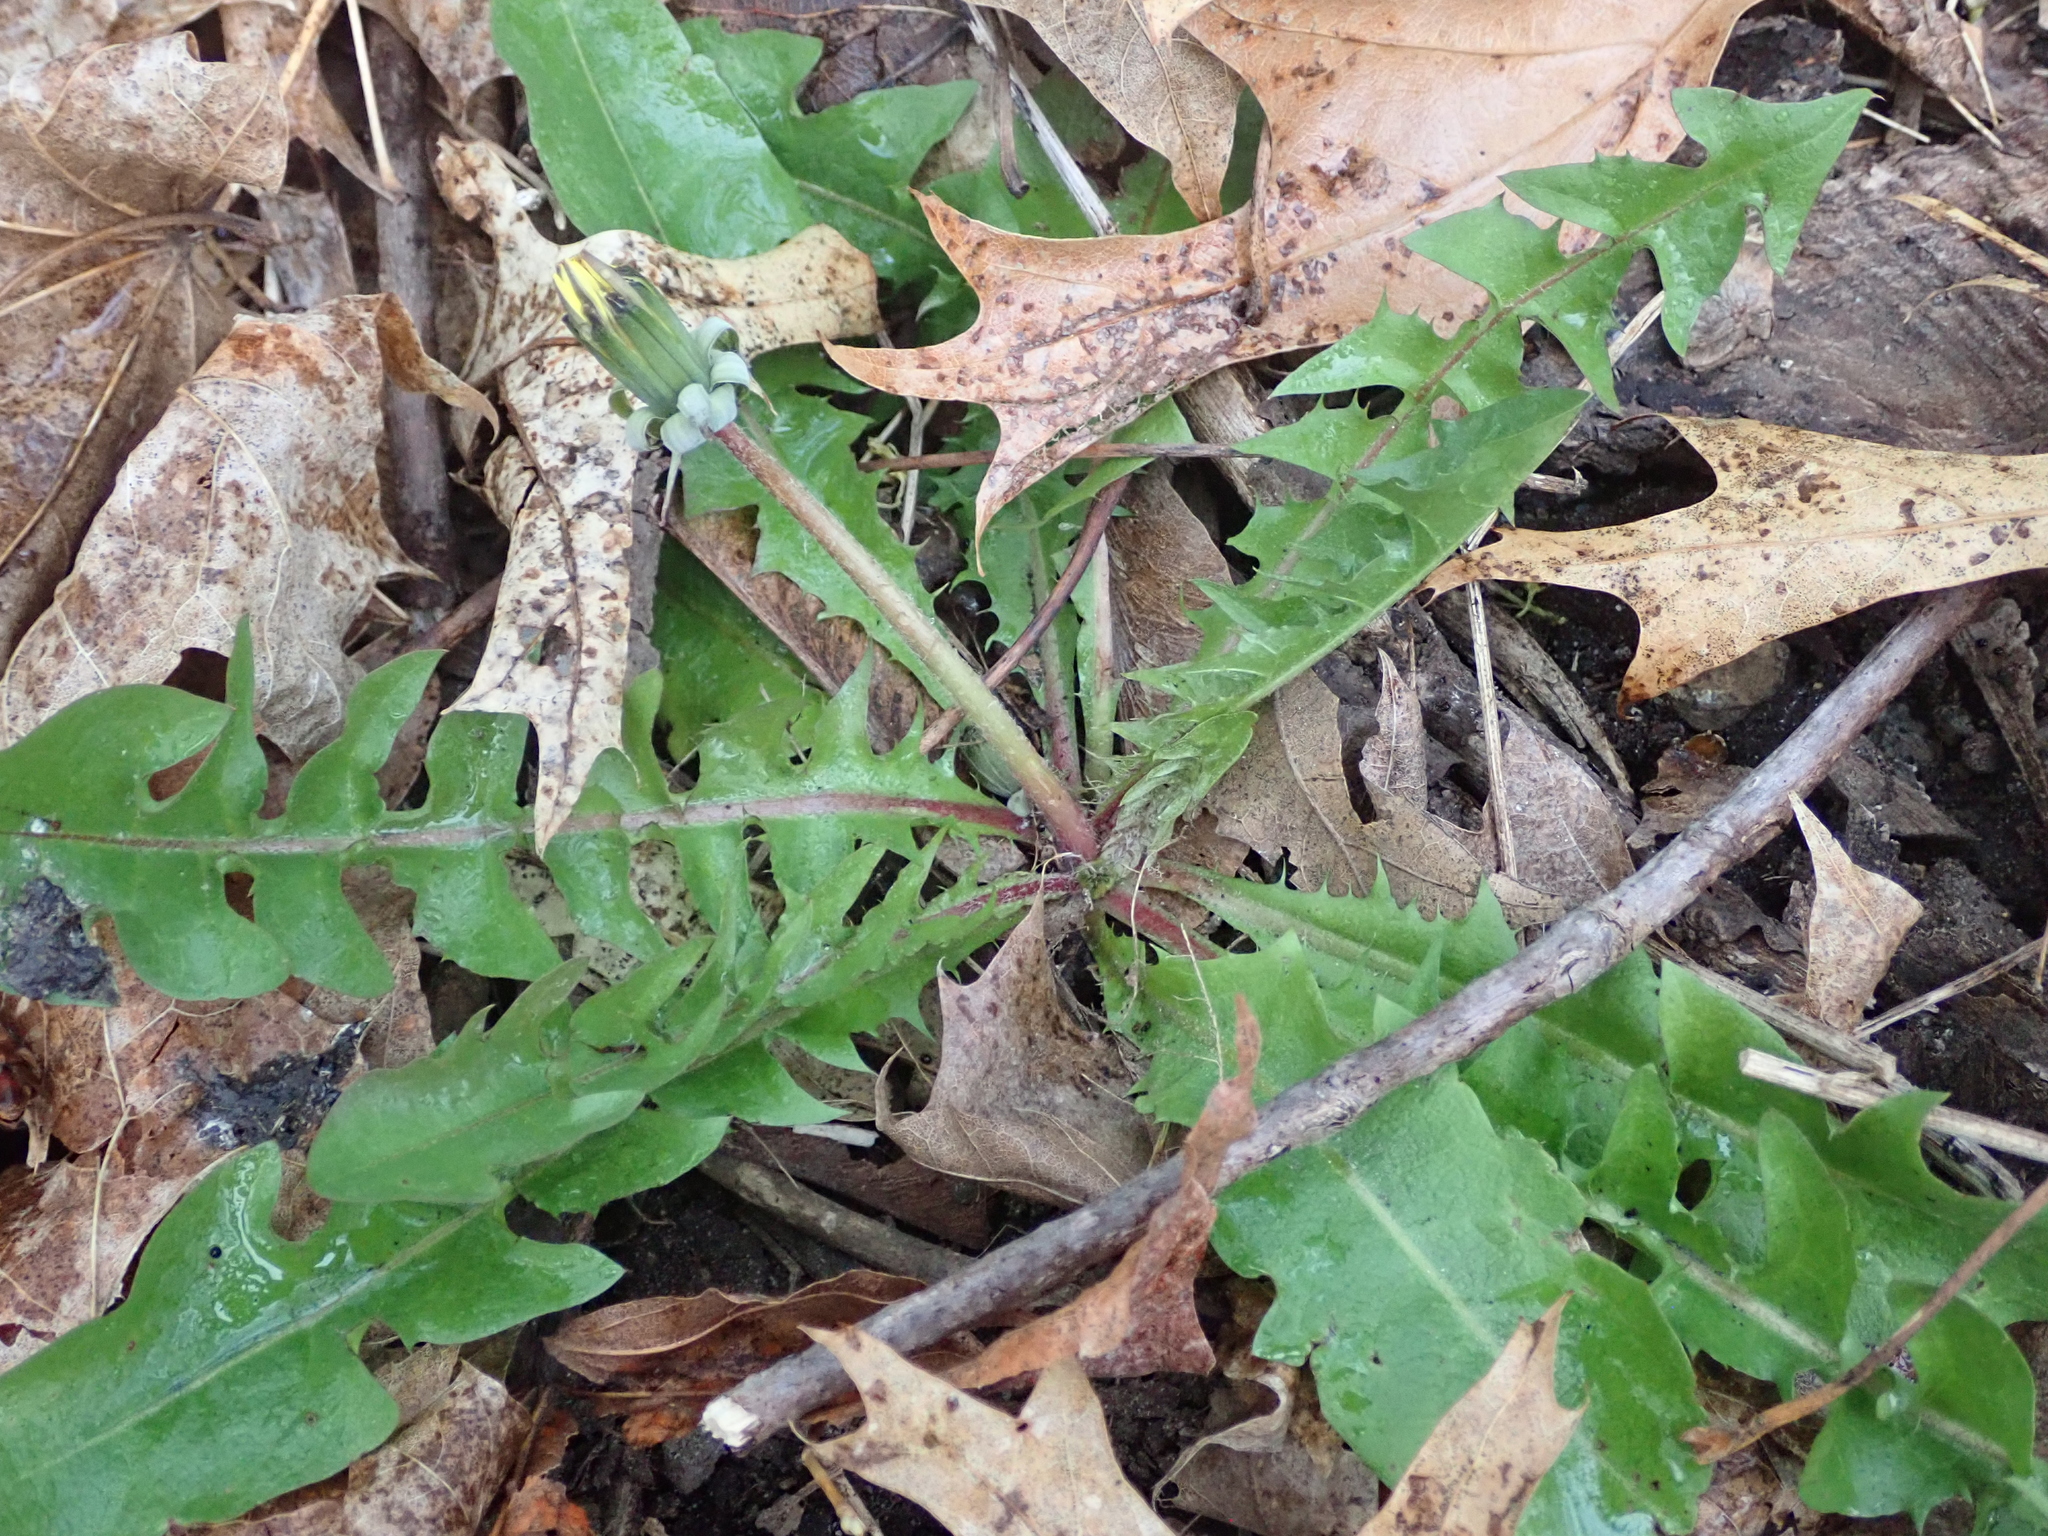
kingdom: Plantae
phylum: Tracheophyta
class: Magnoliopsida
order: Asterales
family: Asteraceae
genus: Taraxacum
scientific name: Taraxacum officinale
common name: Common dandelion
